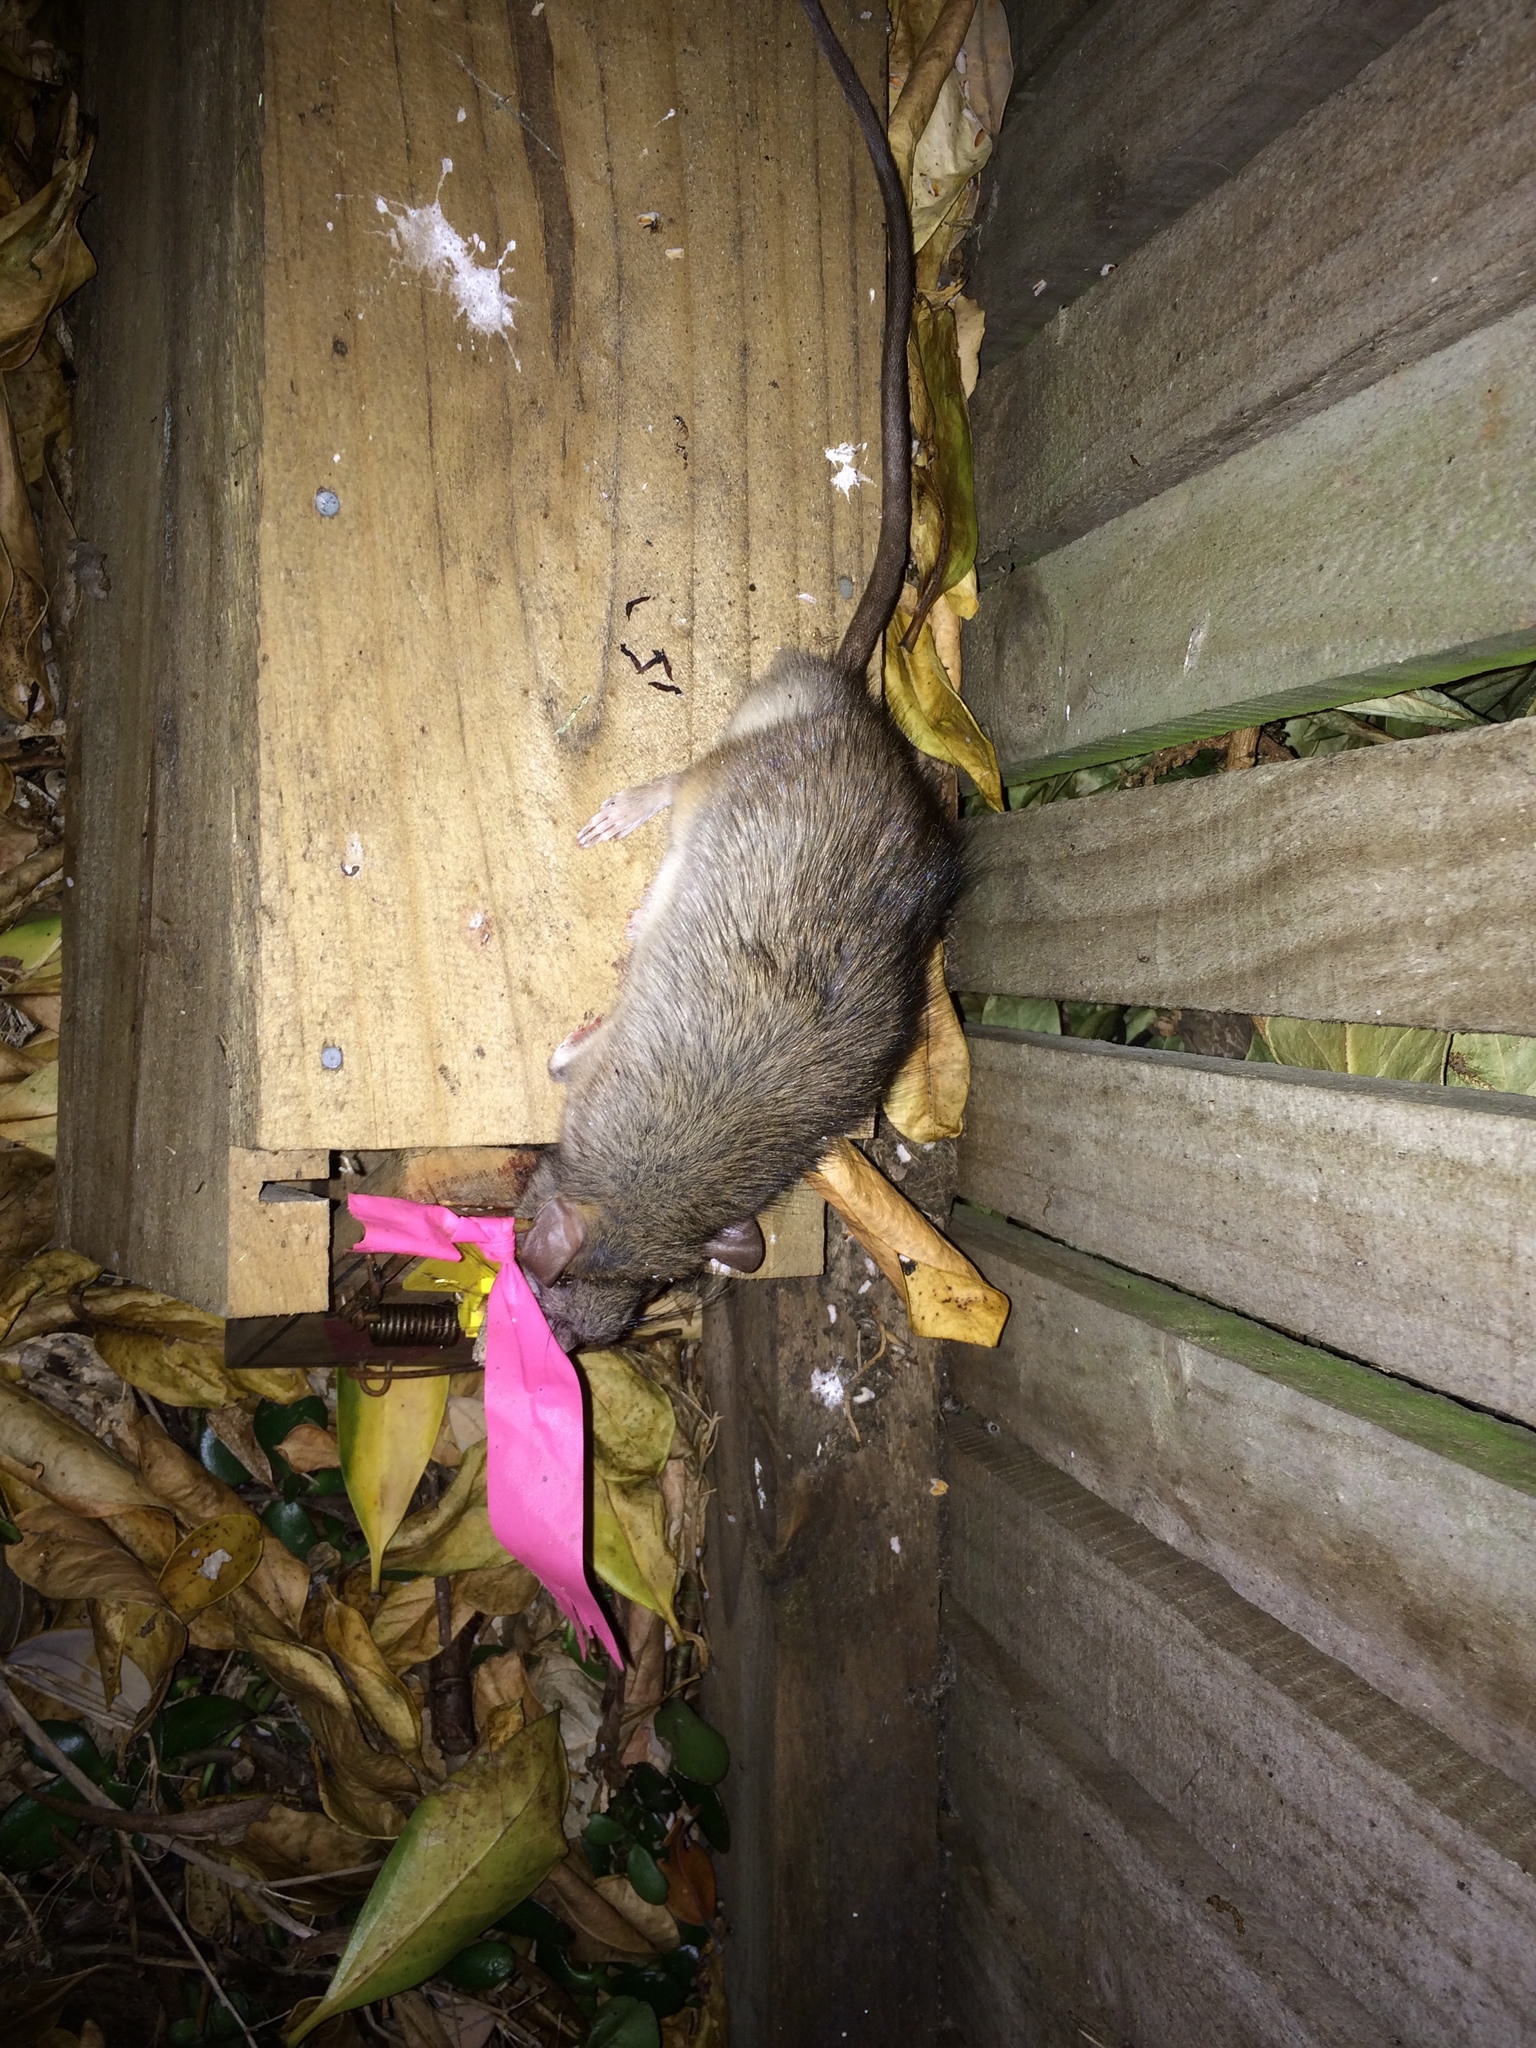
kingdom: Animalia
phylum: Chordata
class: Mammalia
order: Rodentia
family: Muridae
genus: Rattus
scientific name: Rattus rattus
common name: Black rat
